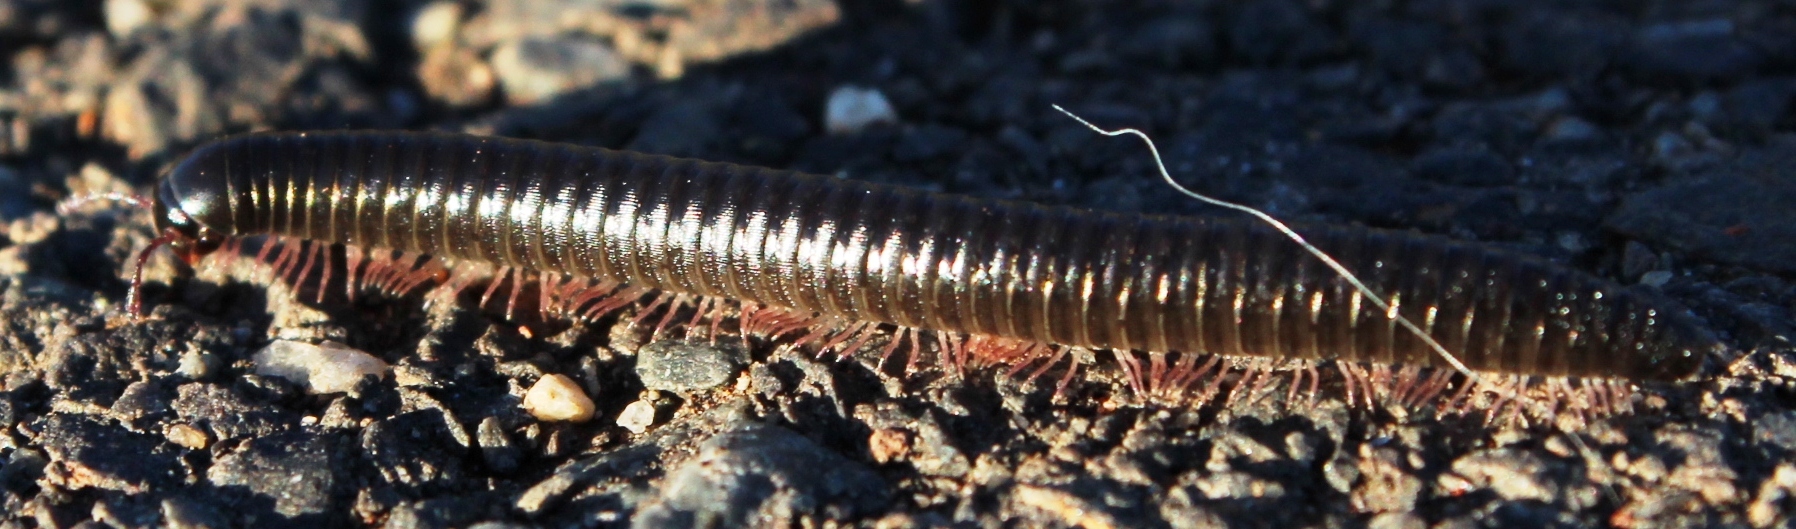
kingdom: Animalia
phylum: Arthropoda
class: Diplopoda
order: Julida
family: Julidae
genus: Ommatoiulus
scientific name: Ommatoiulus moreleti
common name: Portuguese millipede
